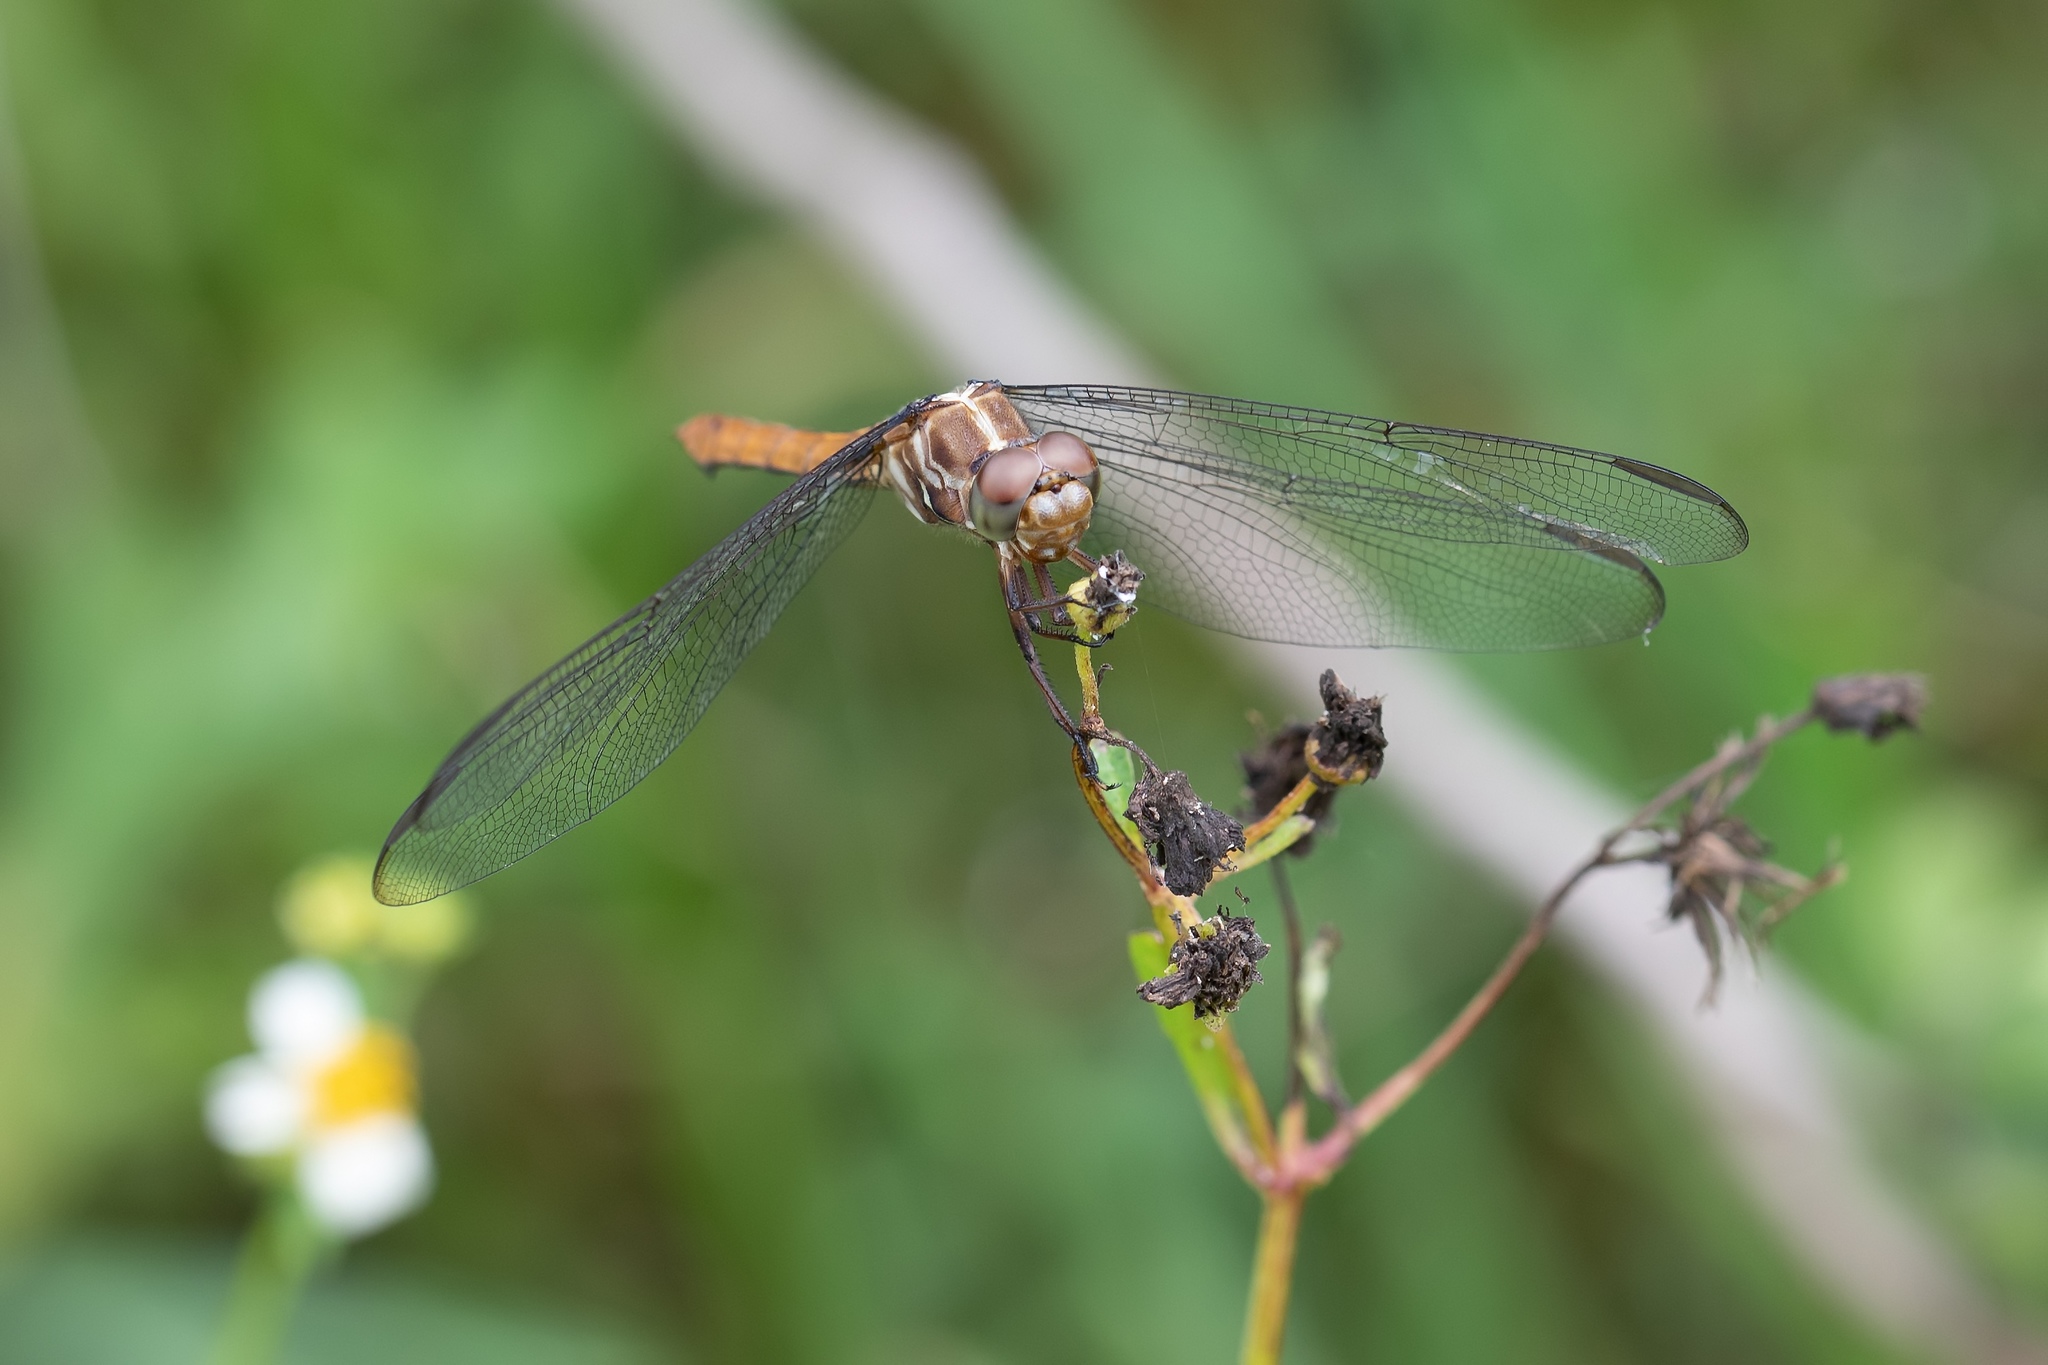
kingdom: Animalia
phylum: Arthropoda
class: Insecta
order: Odonata
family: Libellulidae
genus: Orthemis
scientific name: Orthemis ferruginea
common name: Roseate skimmer
